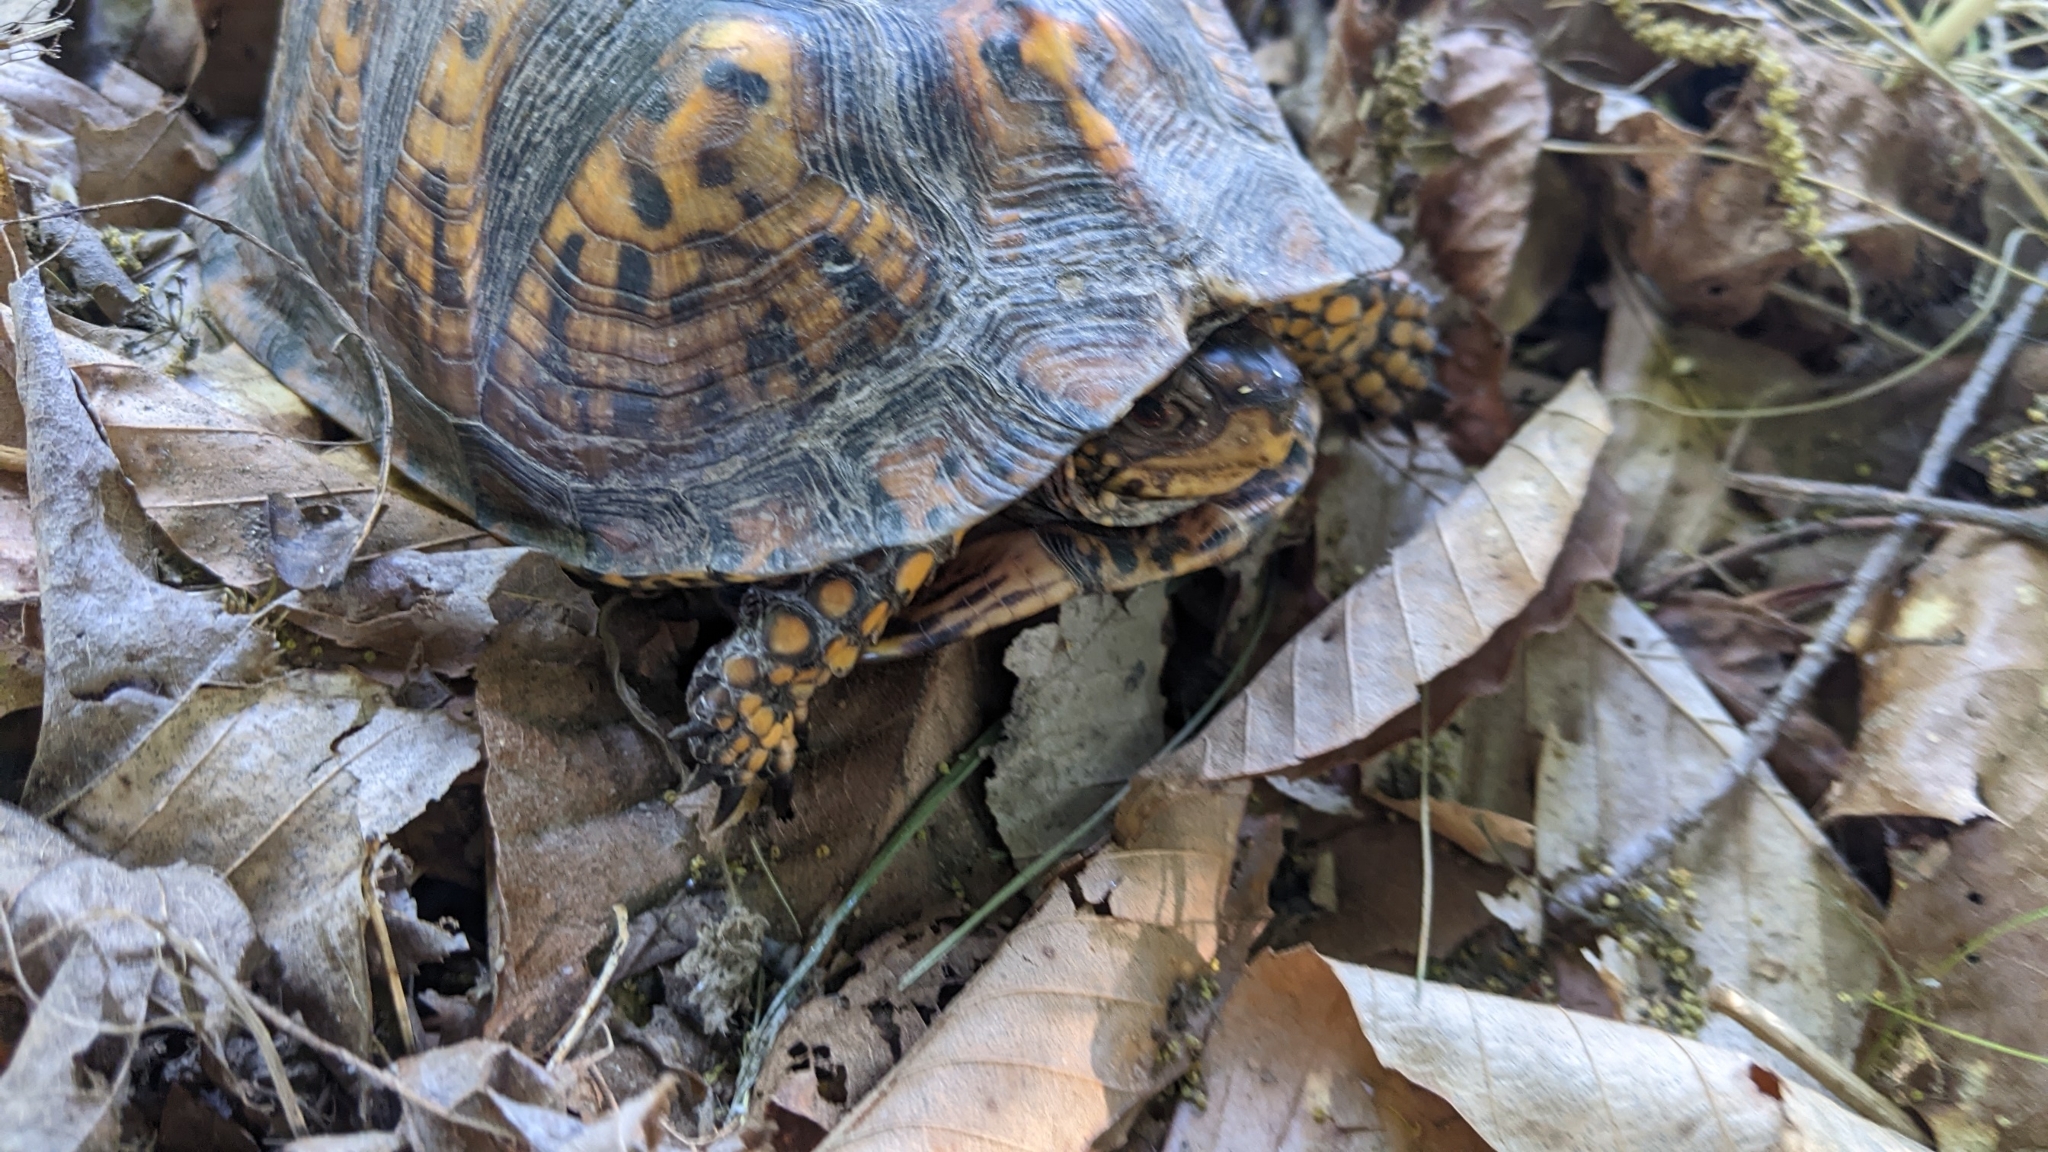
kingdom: Animalia
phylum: Chordata
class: Testudines
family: Emydidae
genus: Terrapene
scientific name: Terrapene carolina
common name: Common box turtle
